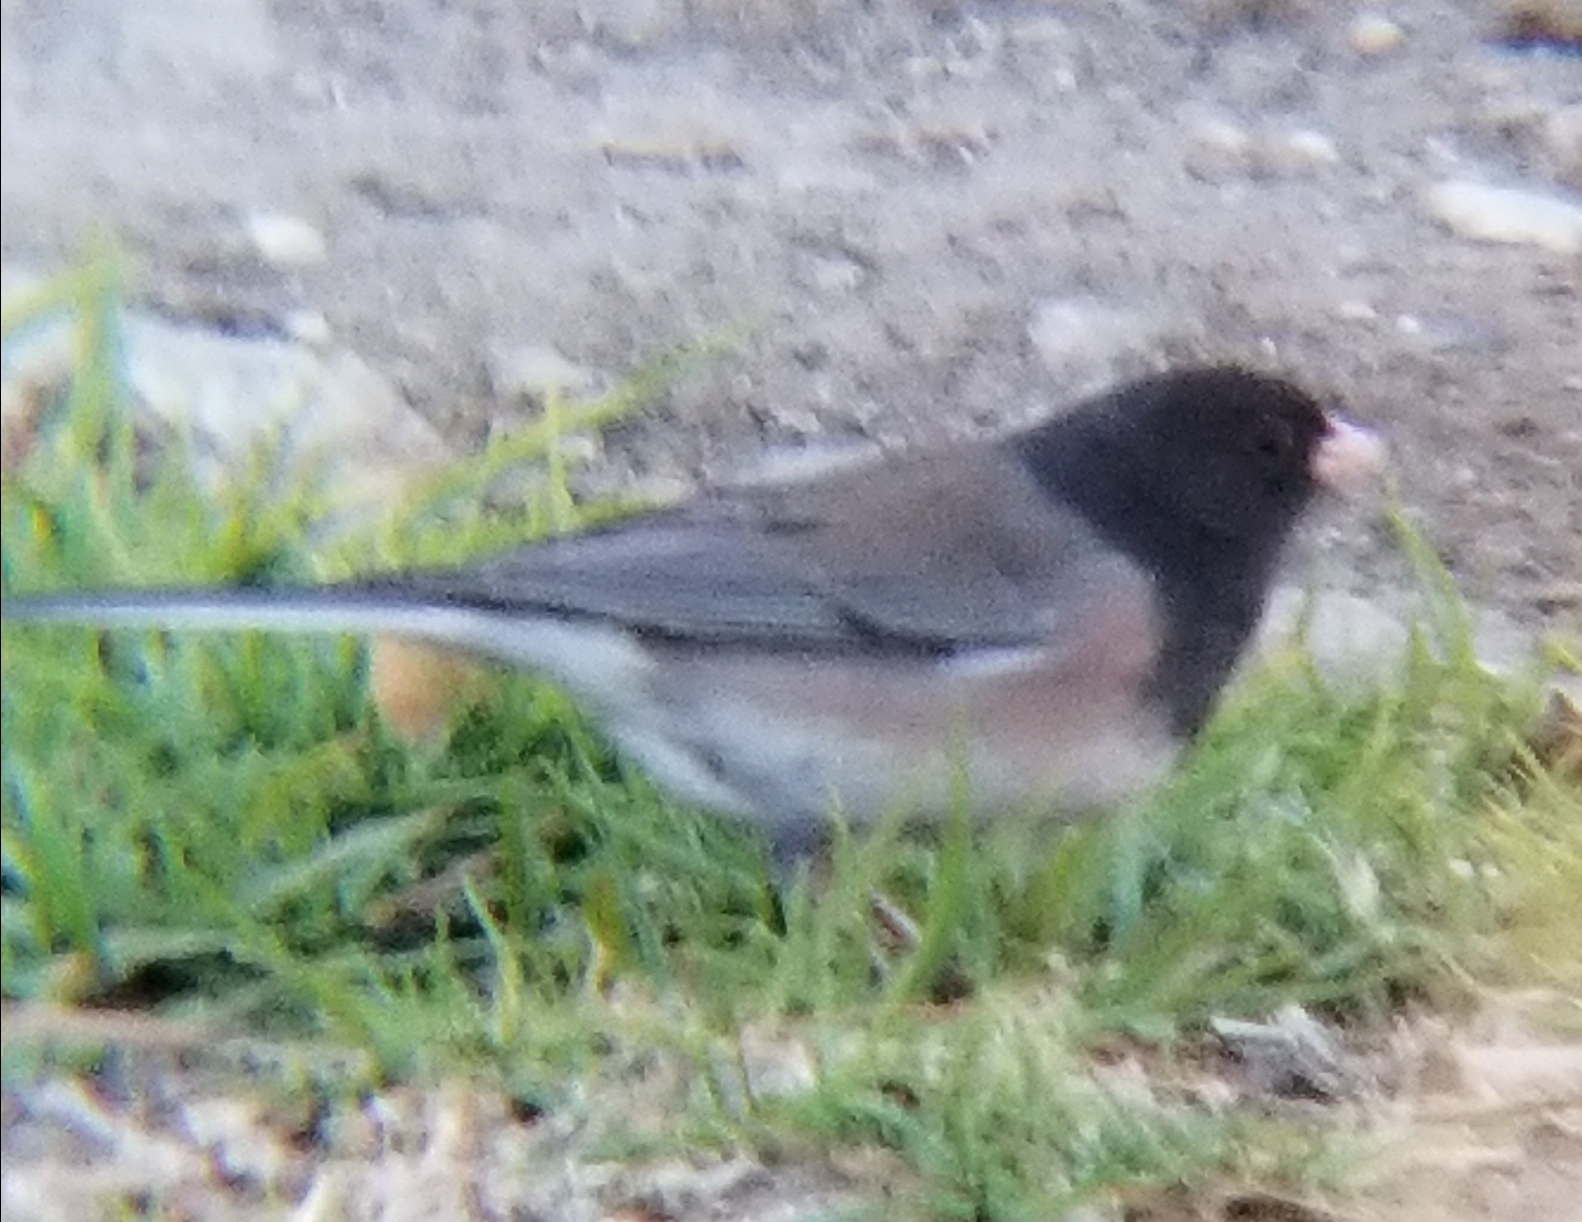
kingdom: Animalia
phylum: Chordata
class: Aves
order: Passeriformes
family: Passerellidae
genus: Junco
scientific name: Junco hyemalis
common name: Dark-eyed junco
